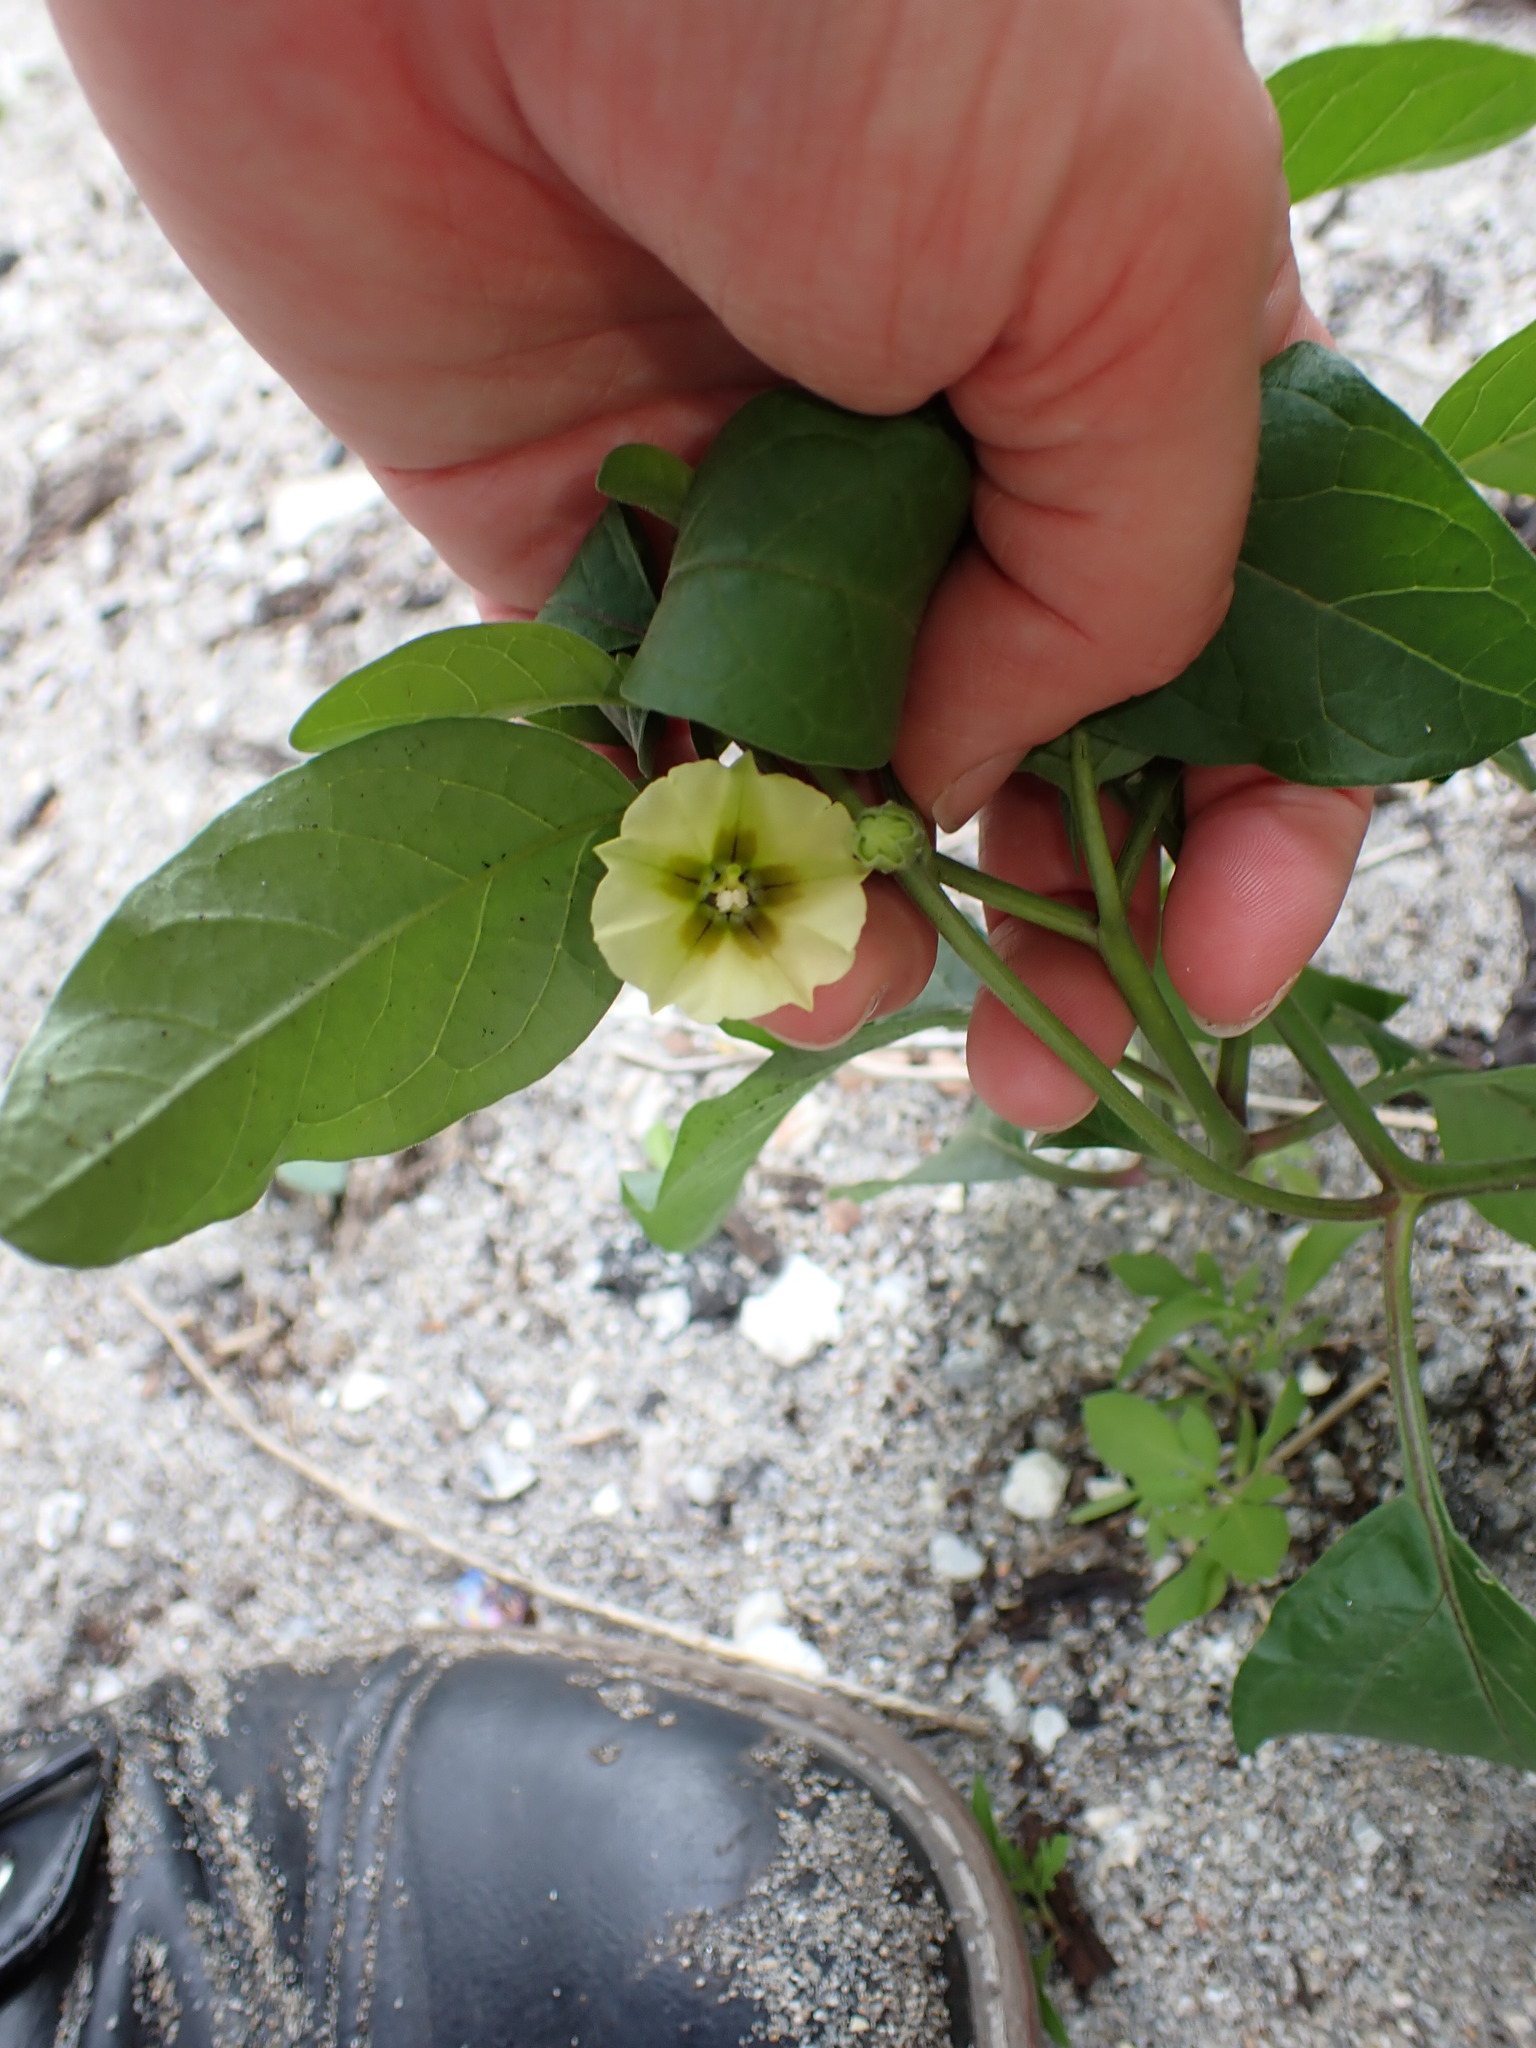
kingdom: Plantae
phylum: Tracheophyta
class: Magnoliopsida
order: Solanales
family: Solanaceae
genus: Physalis
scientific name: Physalis walteri
